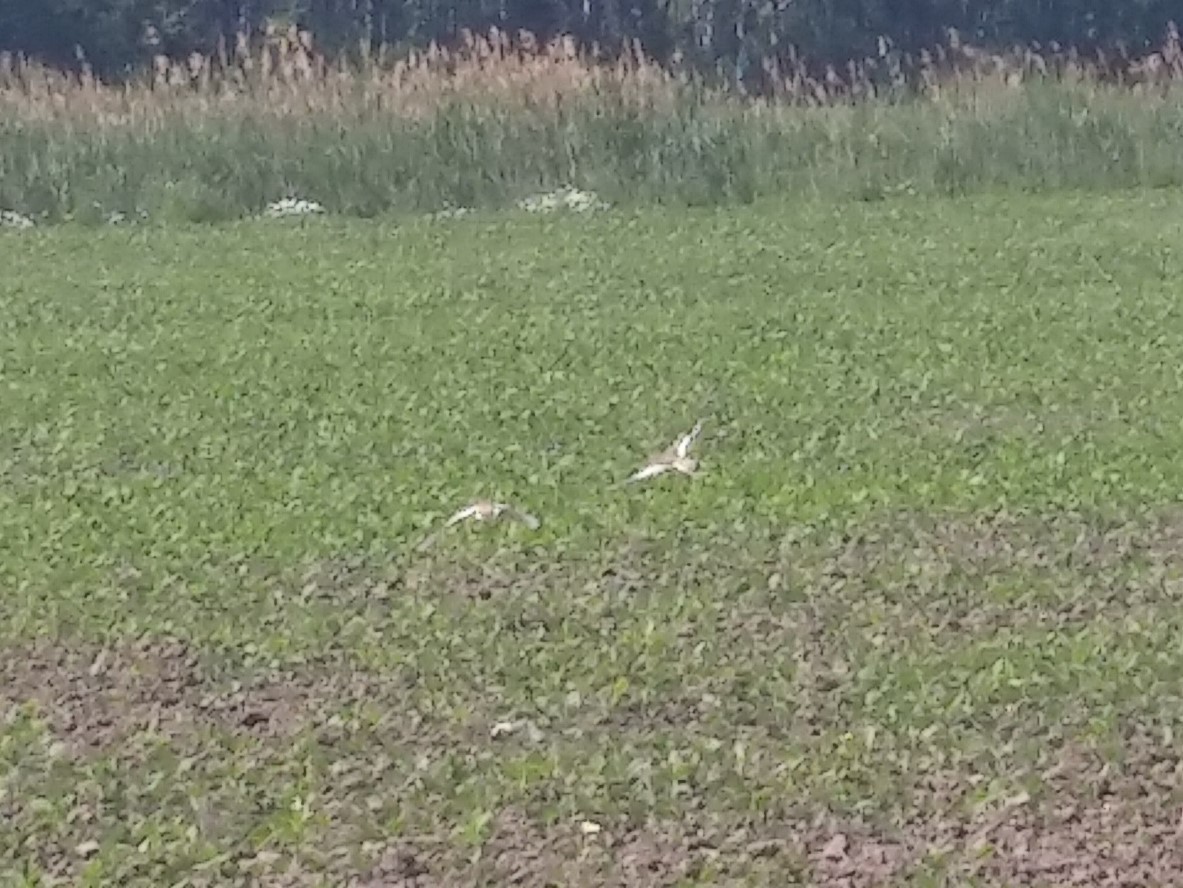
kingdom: Animalia
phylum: Chordata
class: Aves
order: Charadriiformes
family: Charadriidae
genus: Charadrius
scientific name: Charadrius vociferus
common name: Killdeer
